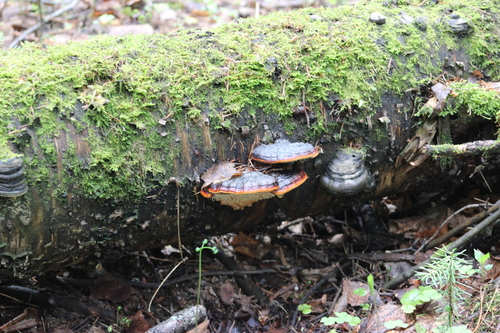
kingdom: Fungi
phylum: Basidiomycota
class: Agaricomycetes
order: Polyporales
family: Fomitopsidaceae
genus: Fomitopsis
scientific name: Fomitopsis pinicola
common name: Red-belted bracket
